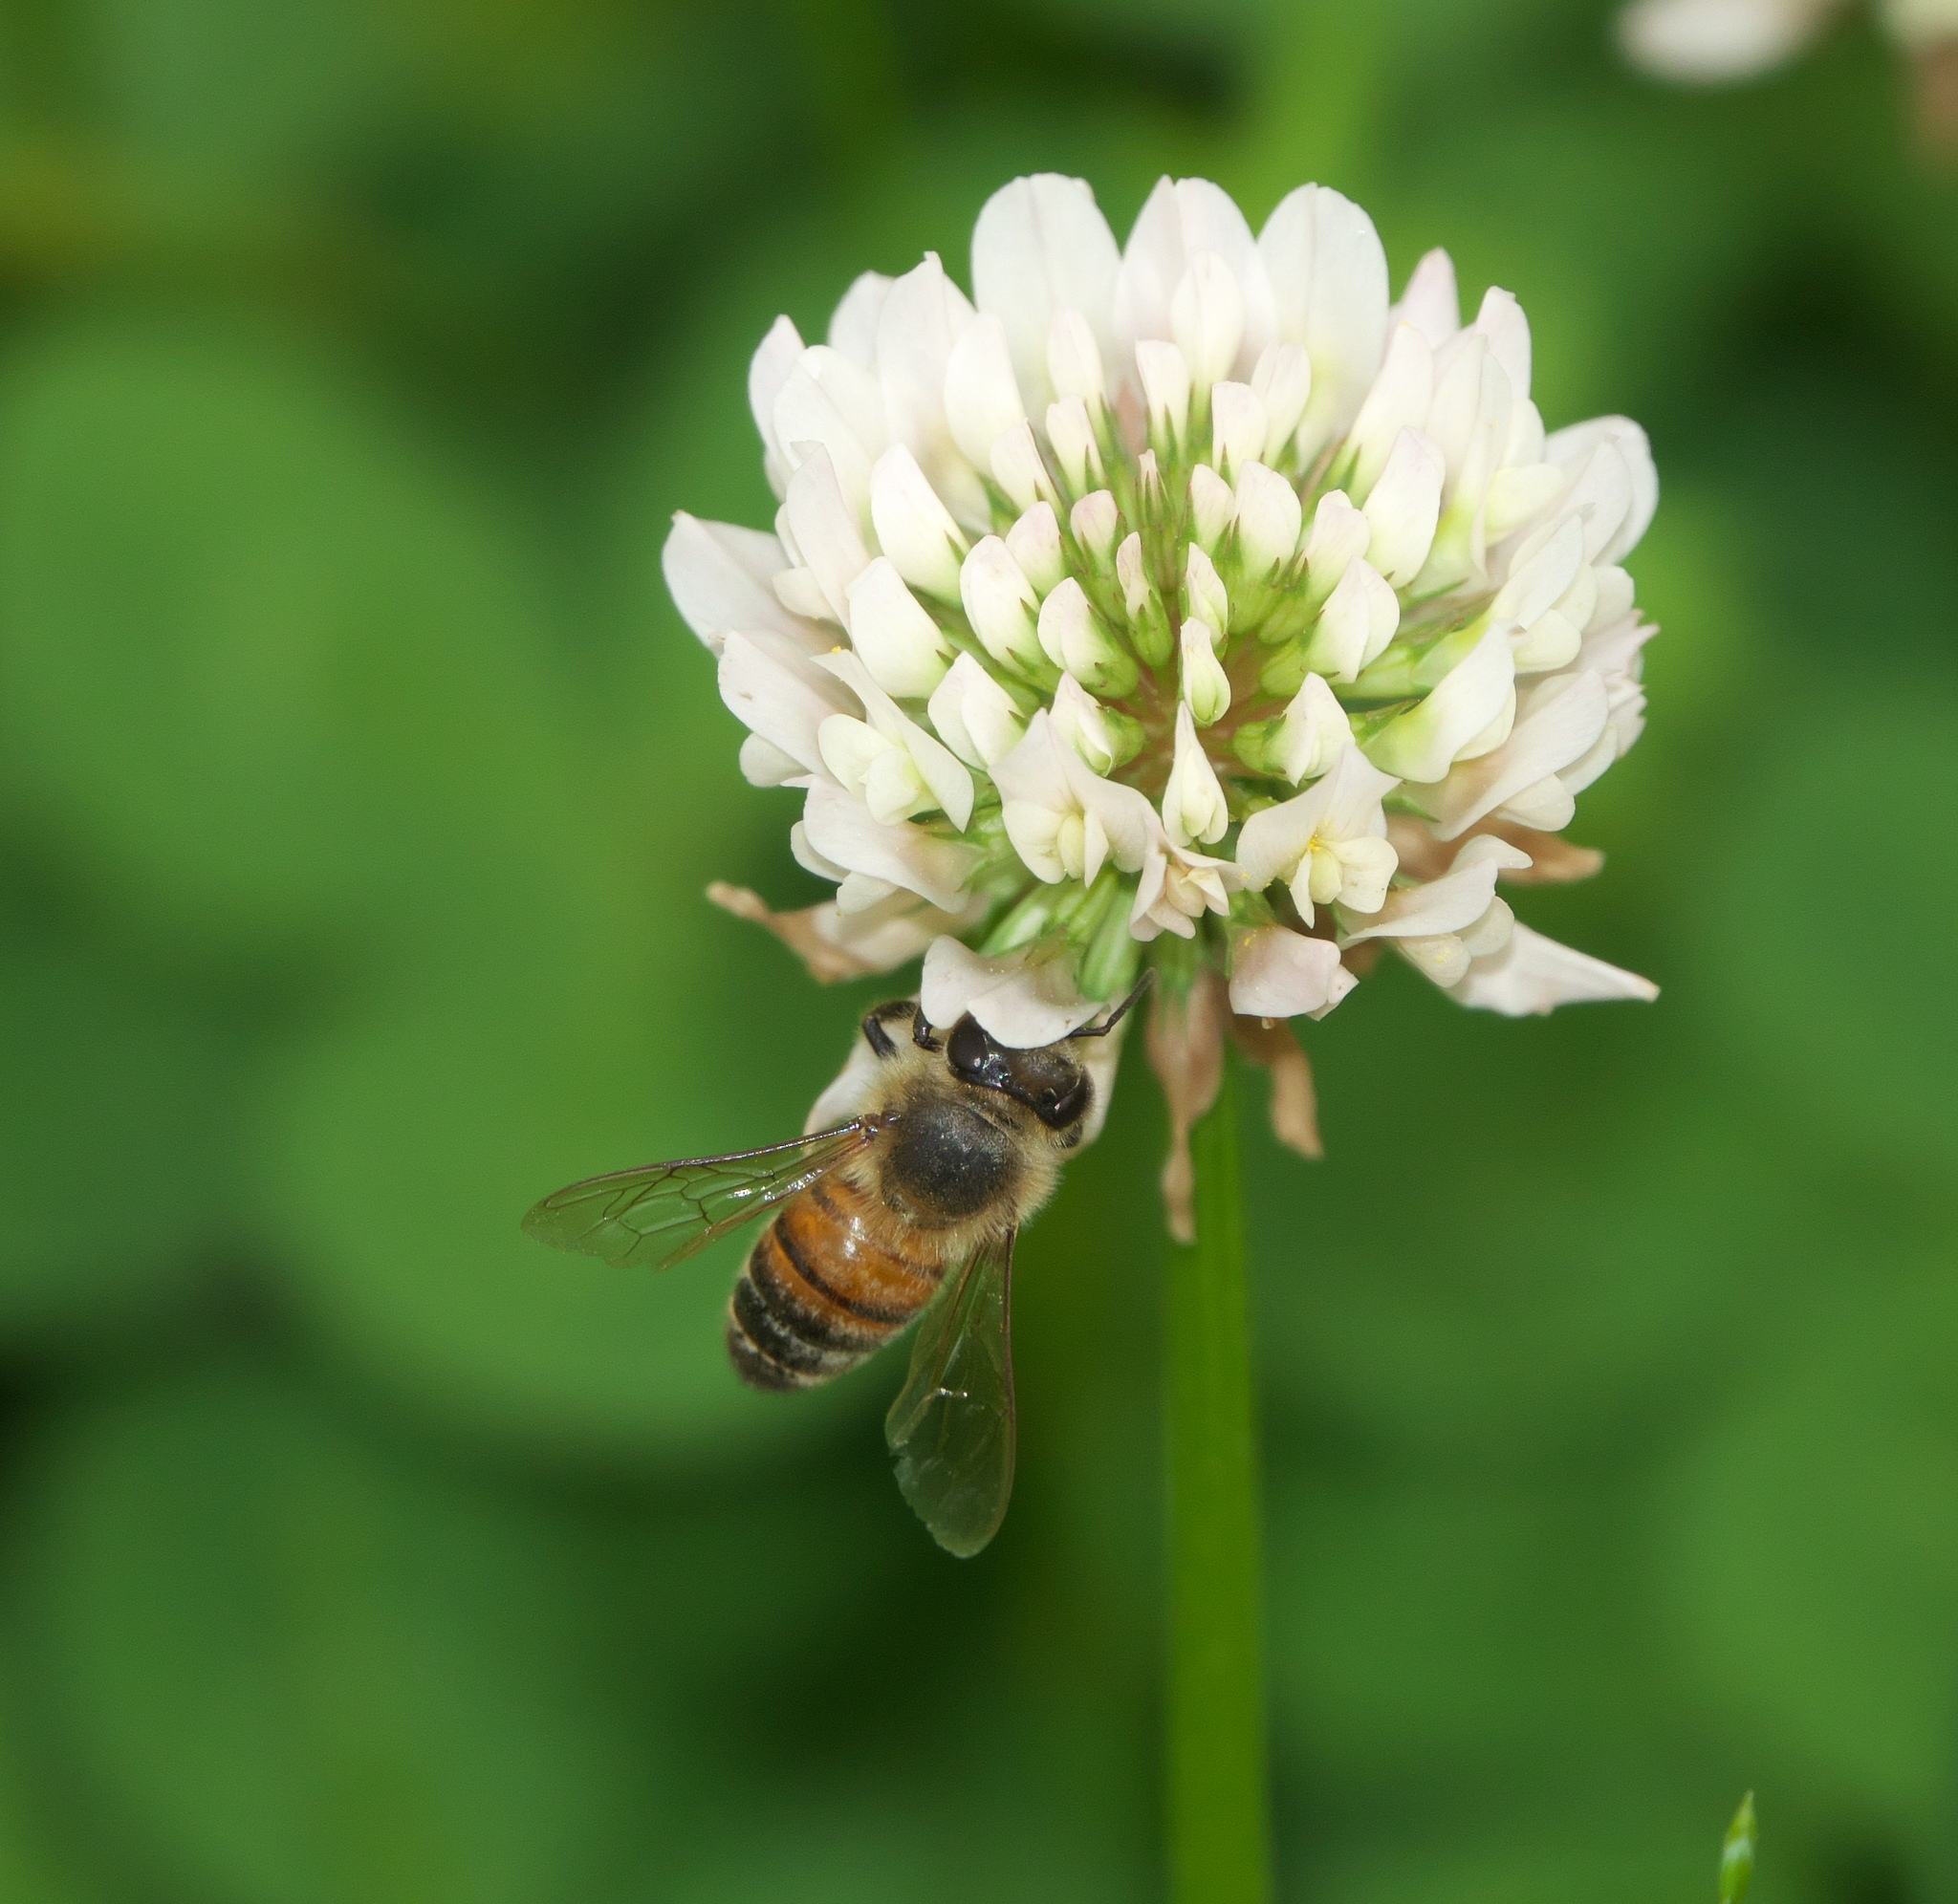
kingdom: Animalia
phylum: Arthropoda
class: Insecta
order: Hymenoptera
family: Apidae
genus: Apis
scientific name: Apis mellifera
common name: Honey bee
